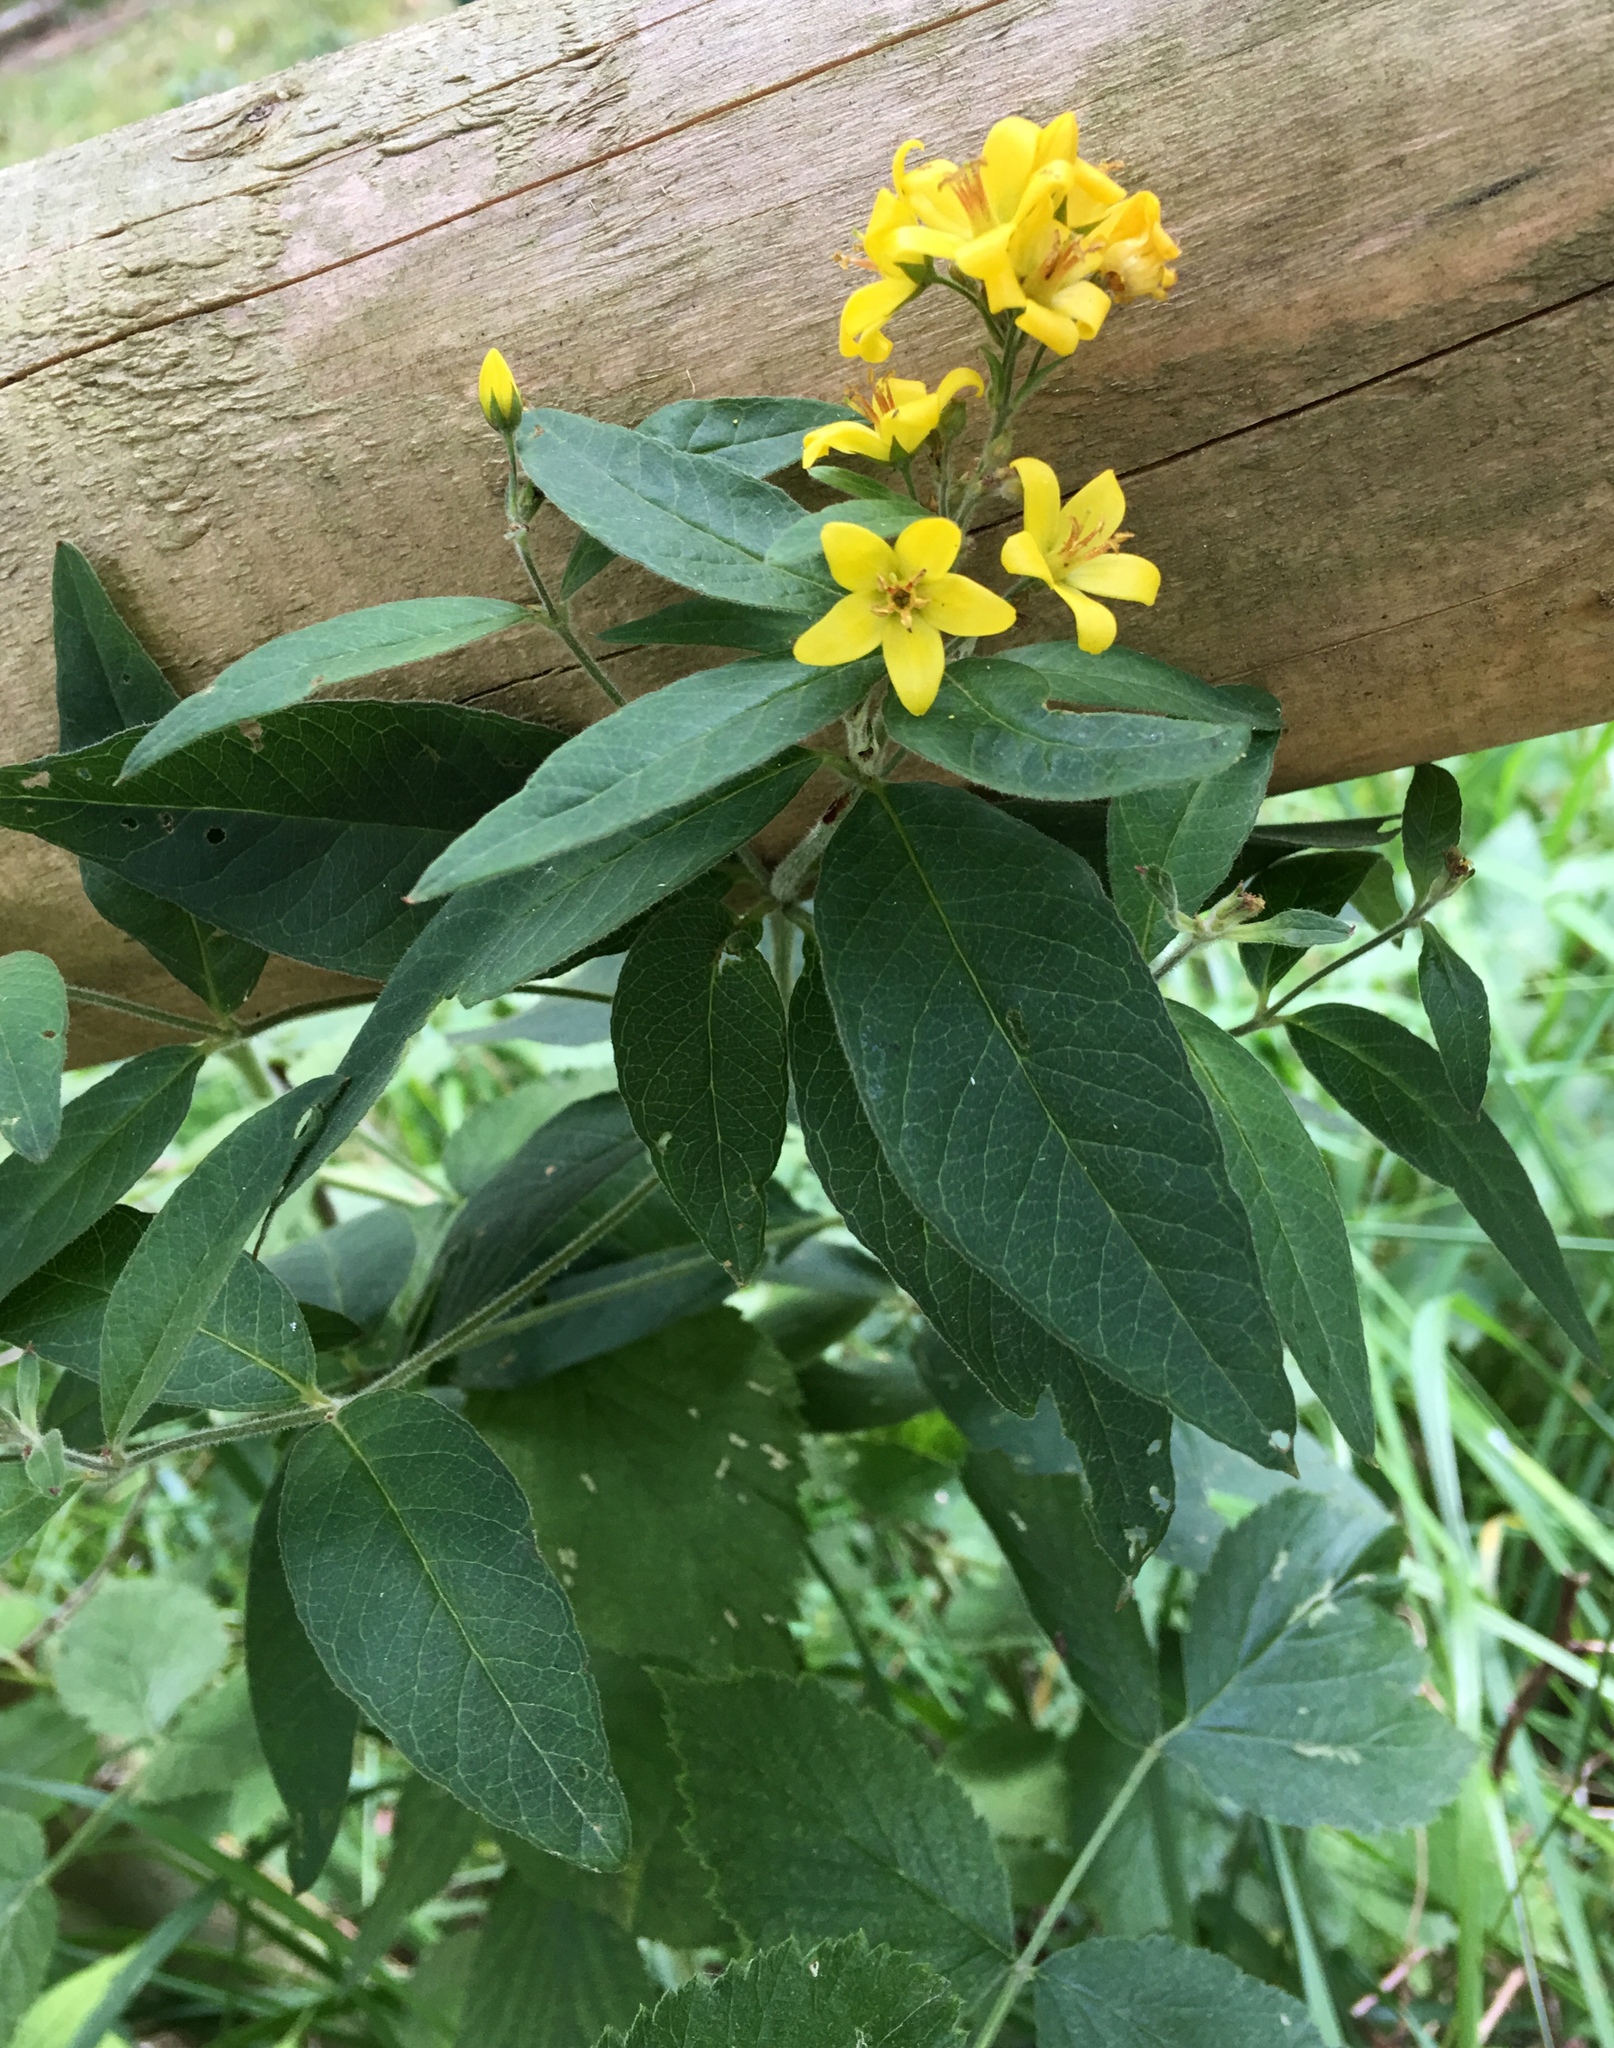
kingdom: Plantae
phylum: Tracheophyta
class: Magnoliopsida
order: Ericales
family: Primulaceae
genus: Lysimachia
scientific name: Lysimachia vulgaris
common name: Yellow loosestrife
